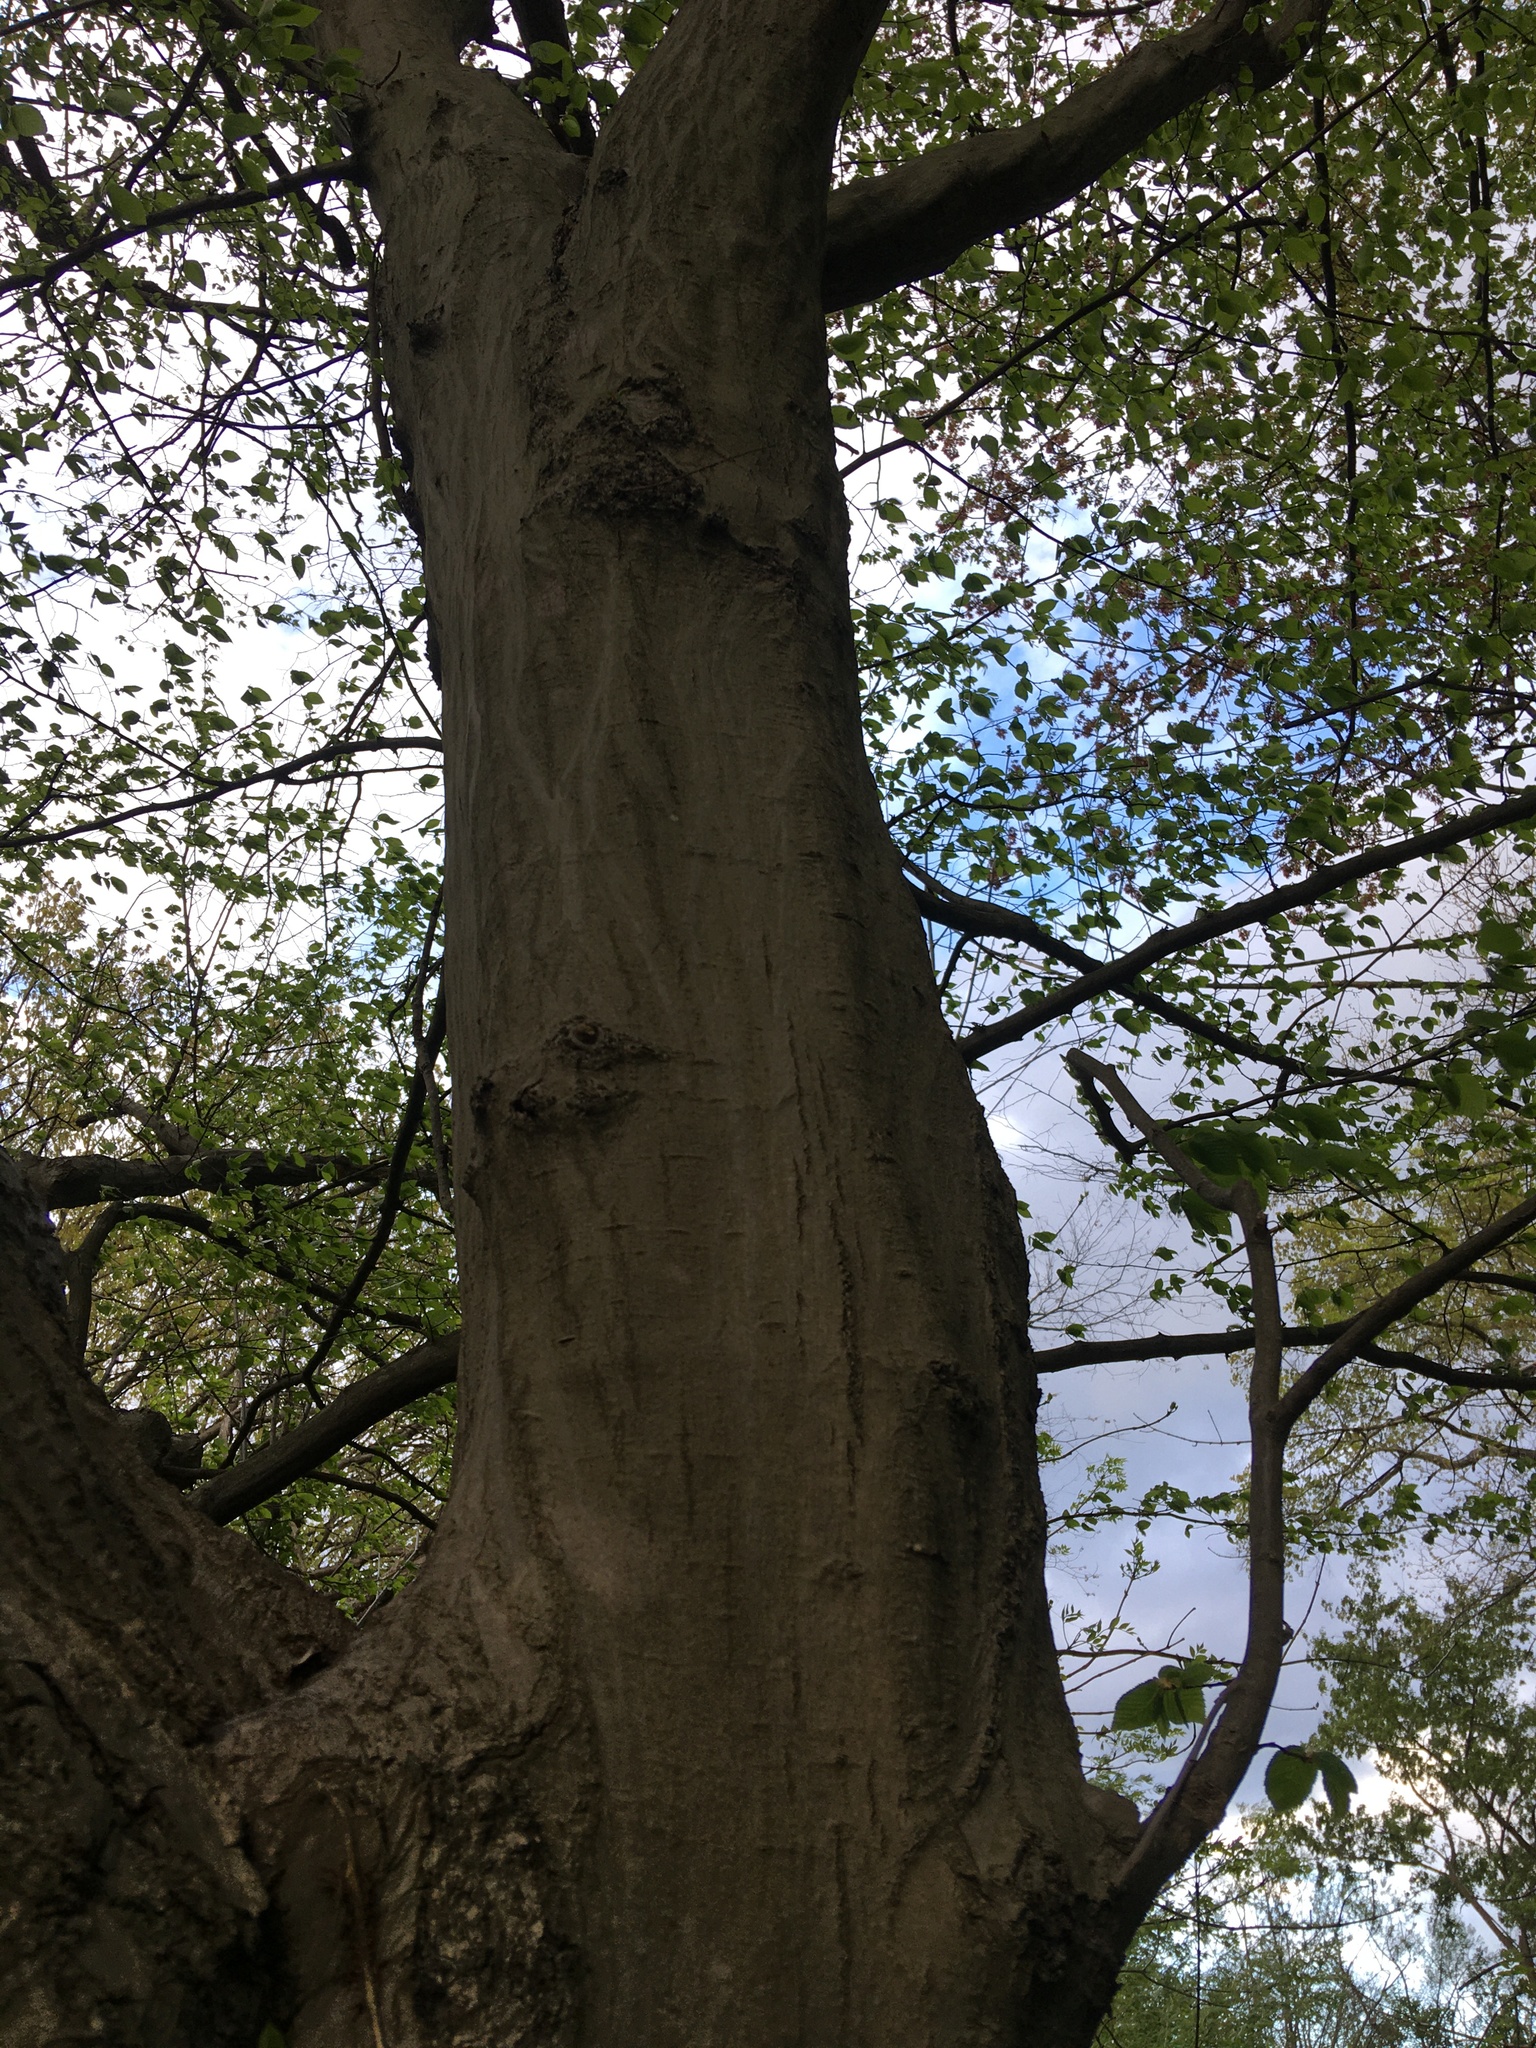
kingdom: Plantae
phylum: Tracheophyta
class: Magnoliopsida
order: Fagales
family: Betulaceae
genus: Carpinus
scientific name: Carpinus caroliniana
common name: American hornbeam
